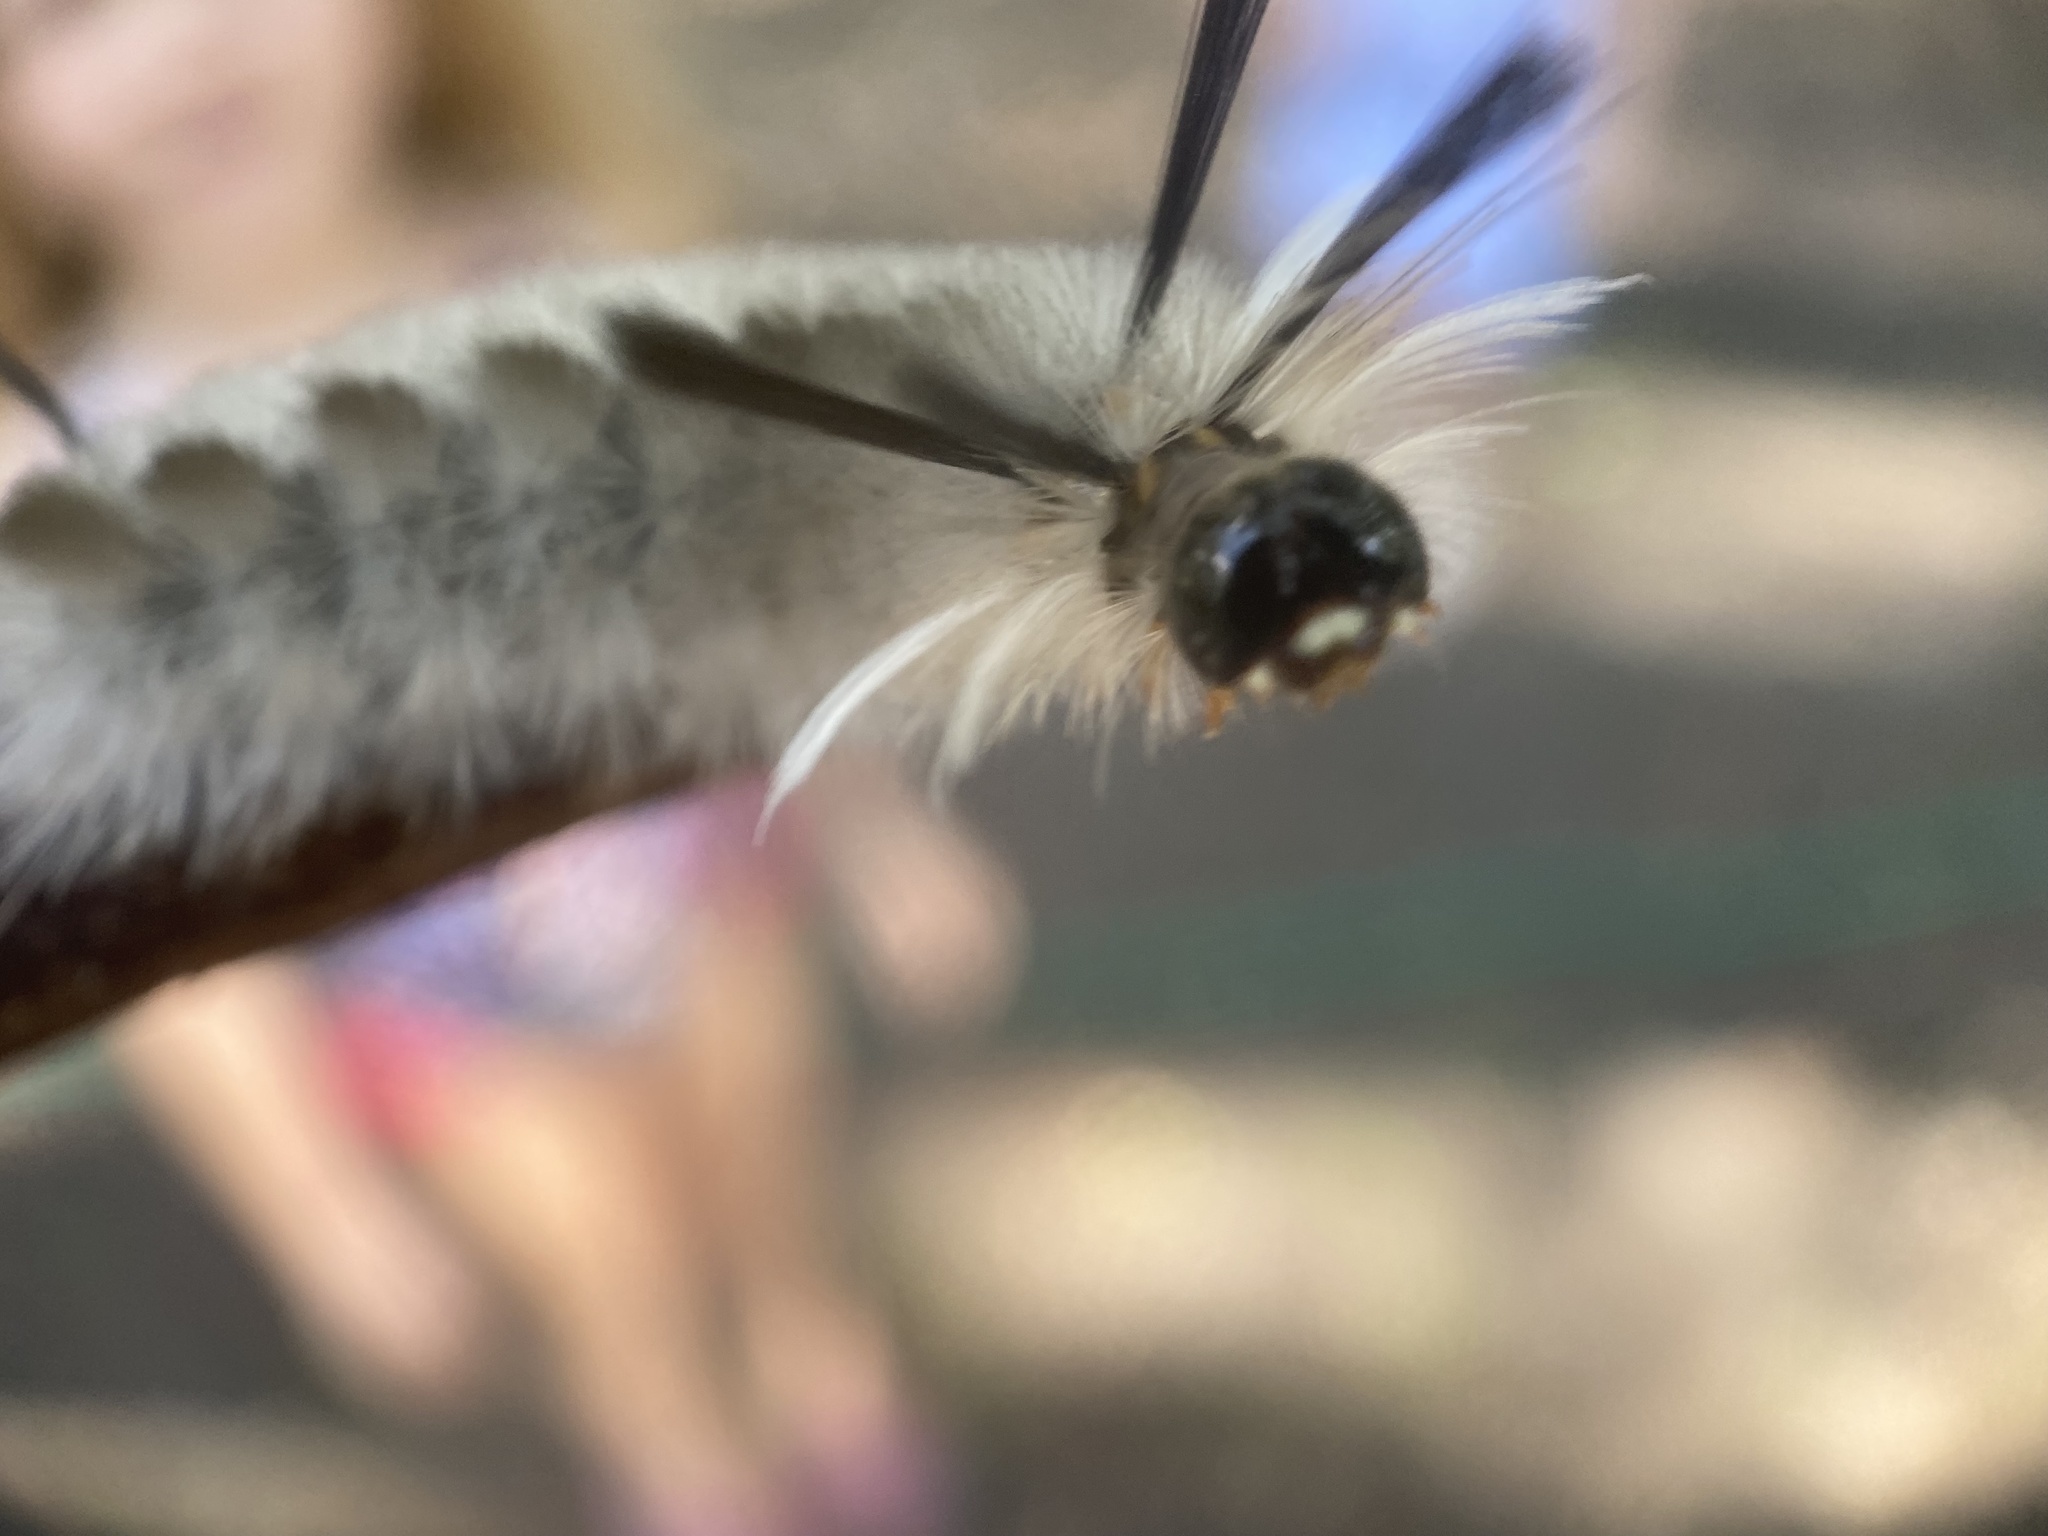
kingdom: Animalia
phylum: Arthropoda
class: Insecta
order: Lepidoptera
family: Erebidae
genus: Halysidota
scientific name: Halysidota tessellaris
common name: Banded tussock moth
